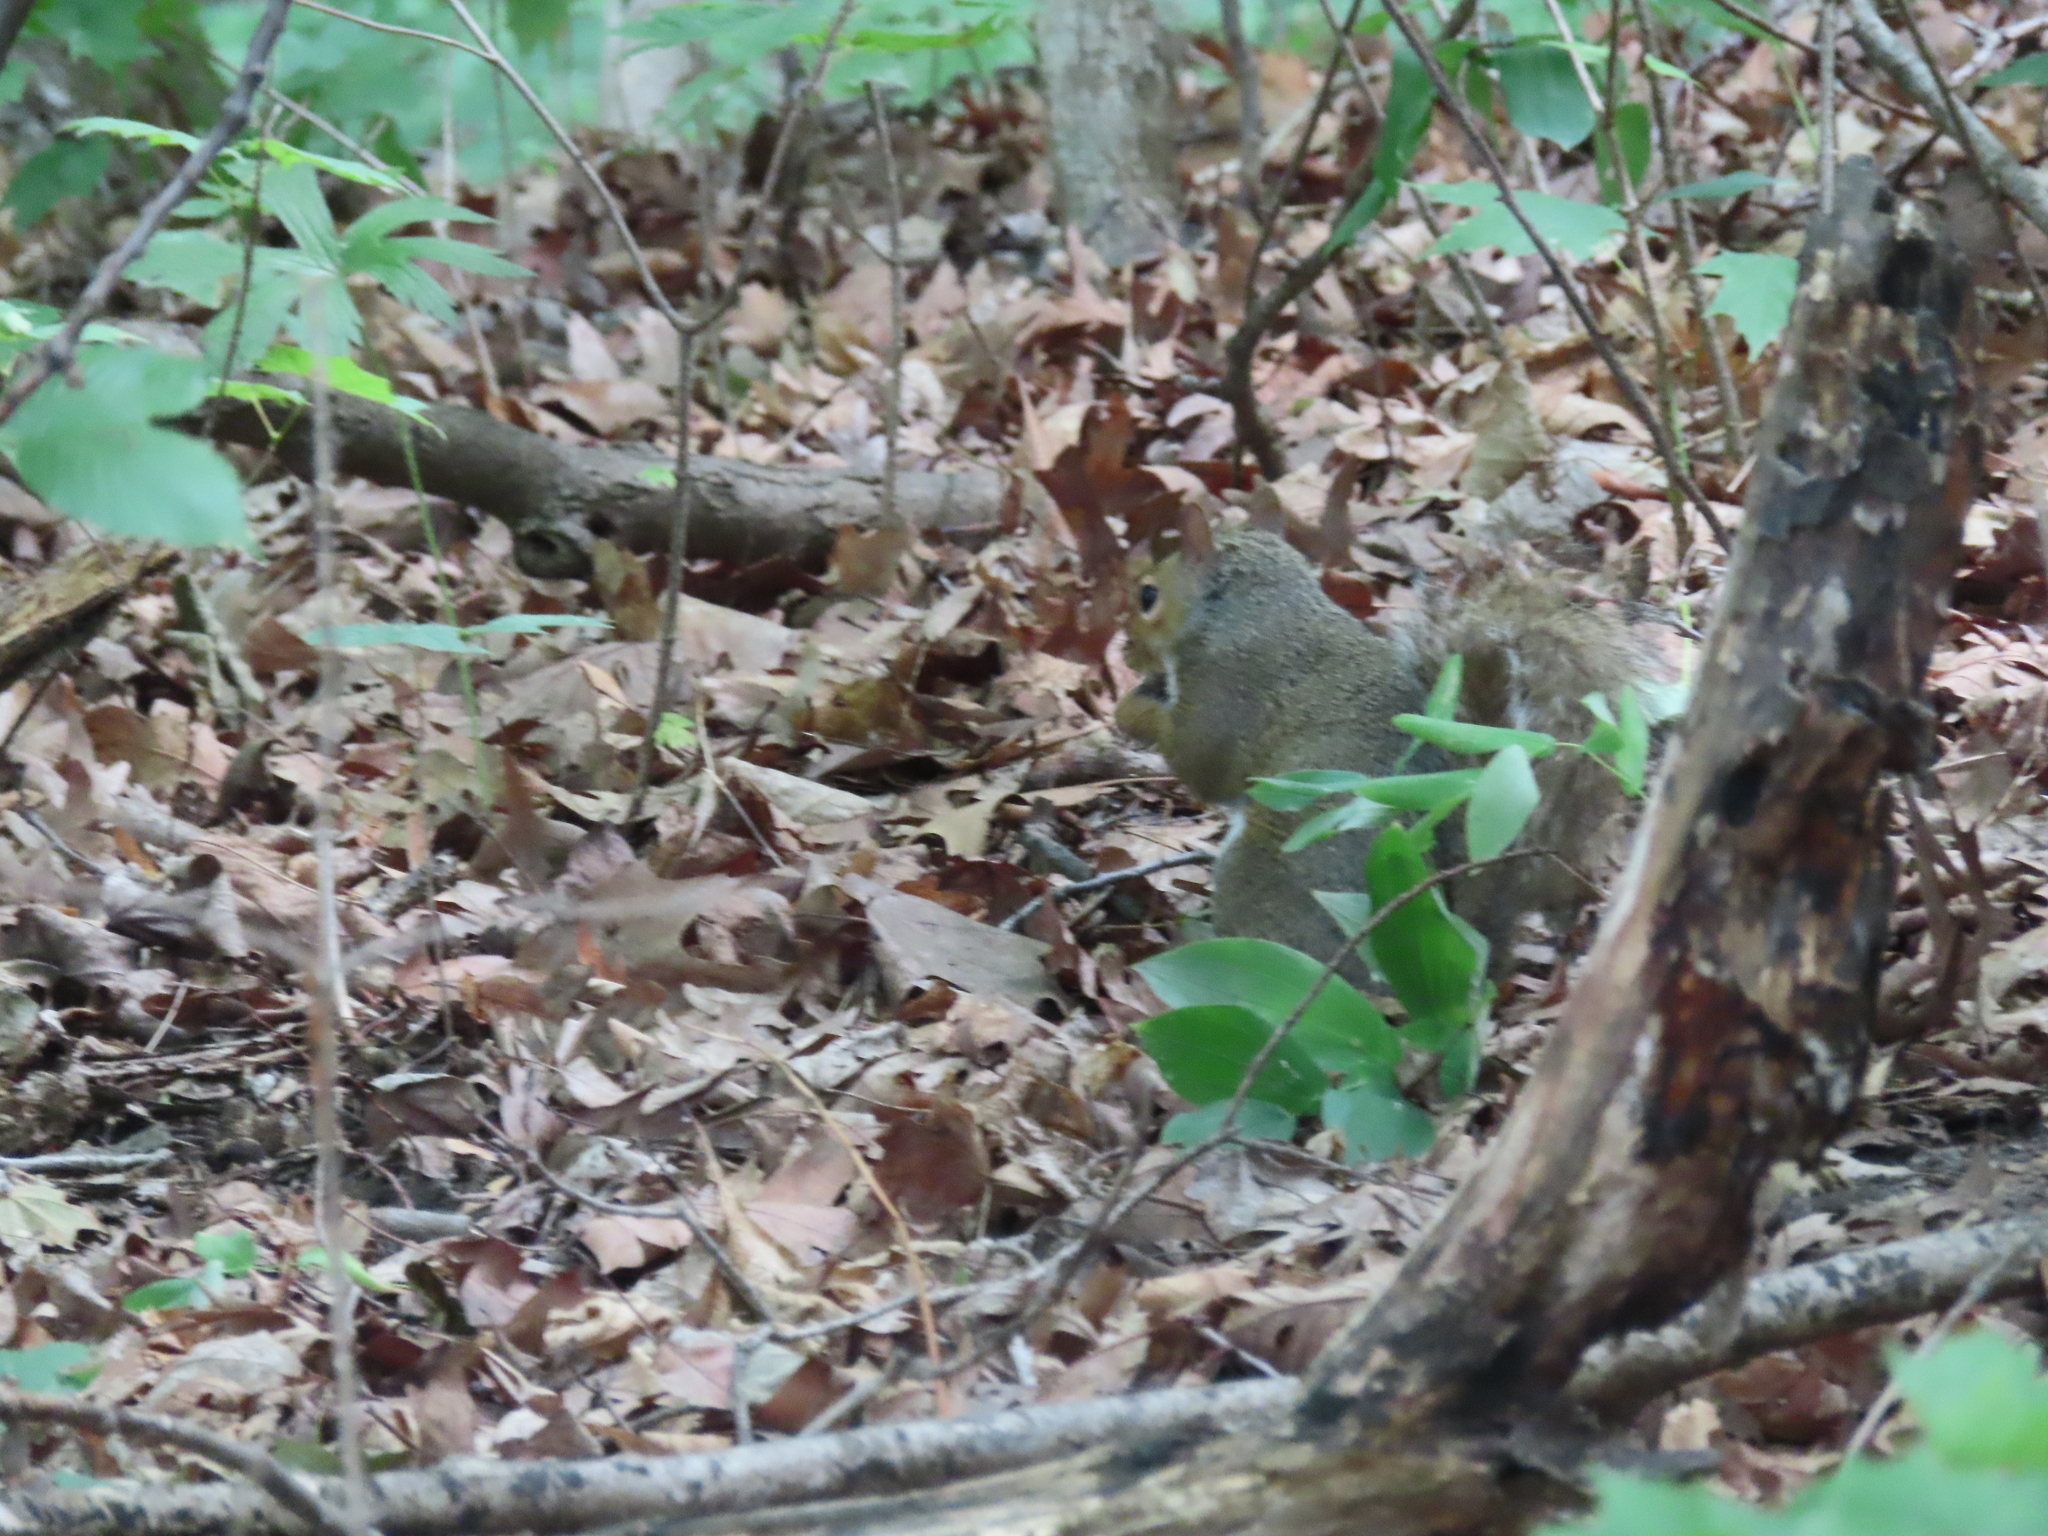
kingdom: Animalia
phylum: Chordata
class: Mammalia
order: Rodentia
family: Sciuridae
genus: Sciurus
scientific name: Sciurus carolinensis
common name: Eastern gray squirrel
